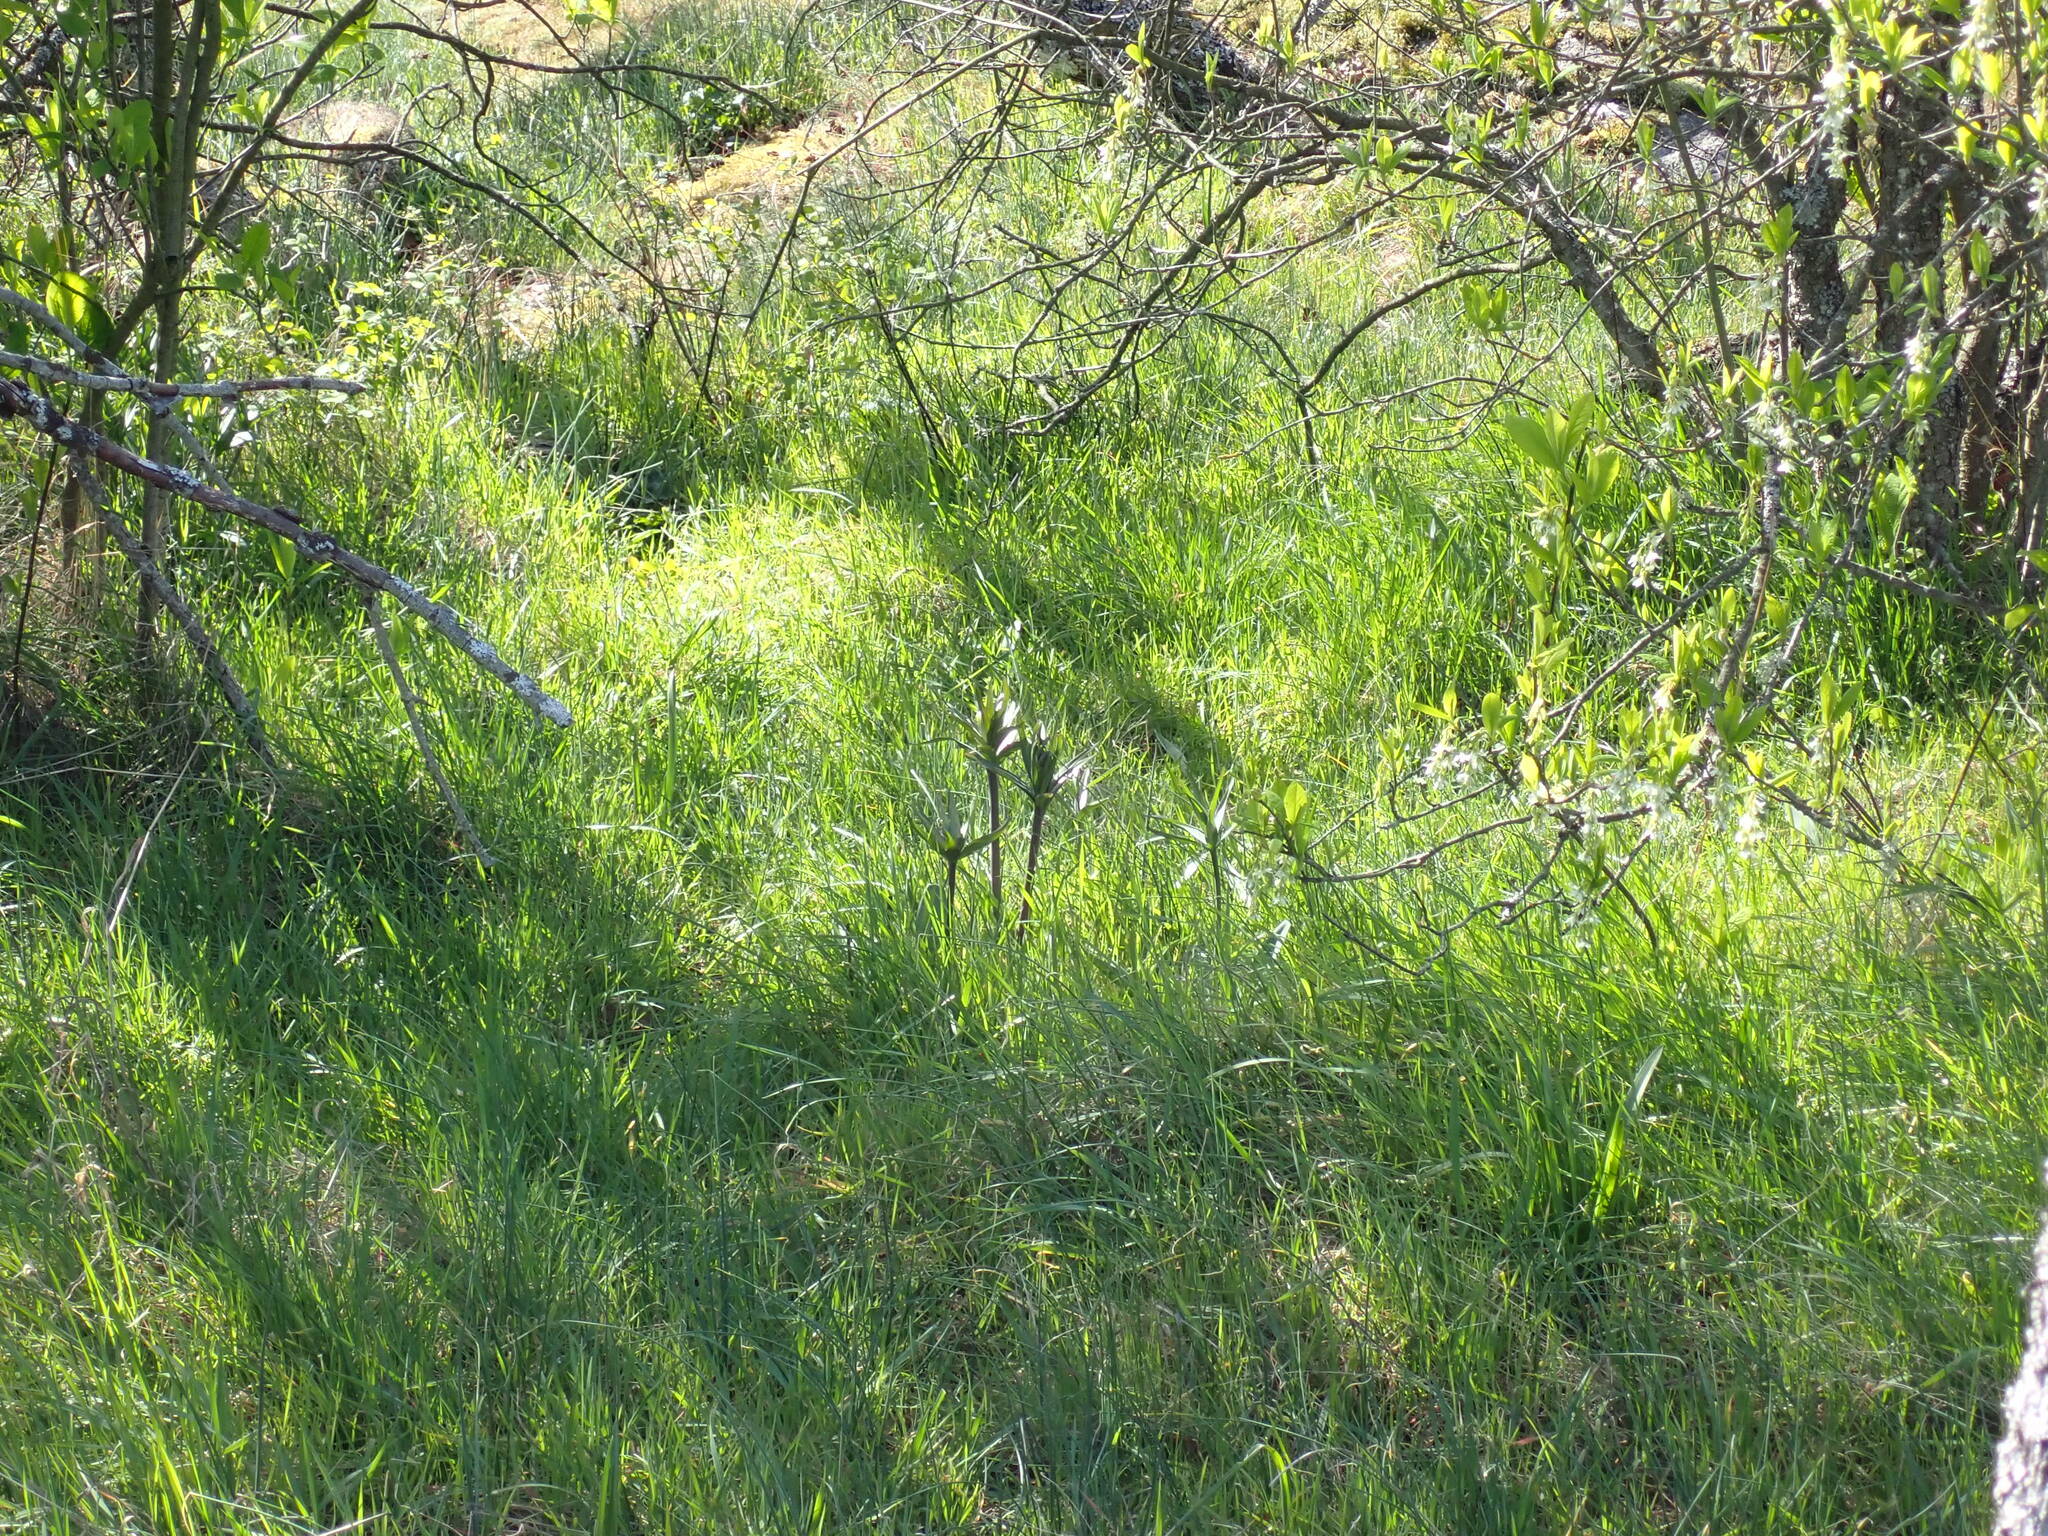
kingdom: Plantae
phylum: Tracheophyta
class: Liliopsida
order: Liliales
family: Liliaceae
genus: Fritillaria
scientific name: Fritillaria affinis
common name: Ojai fritillary
